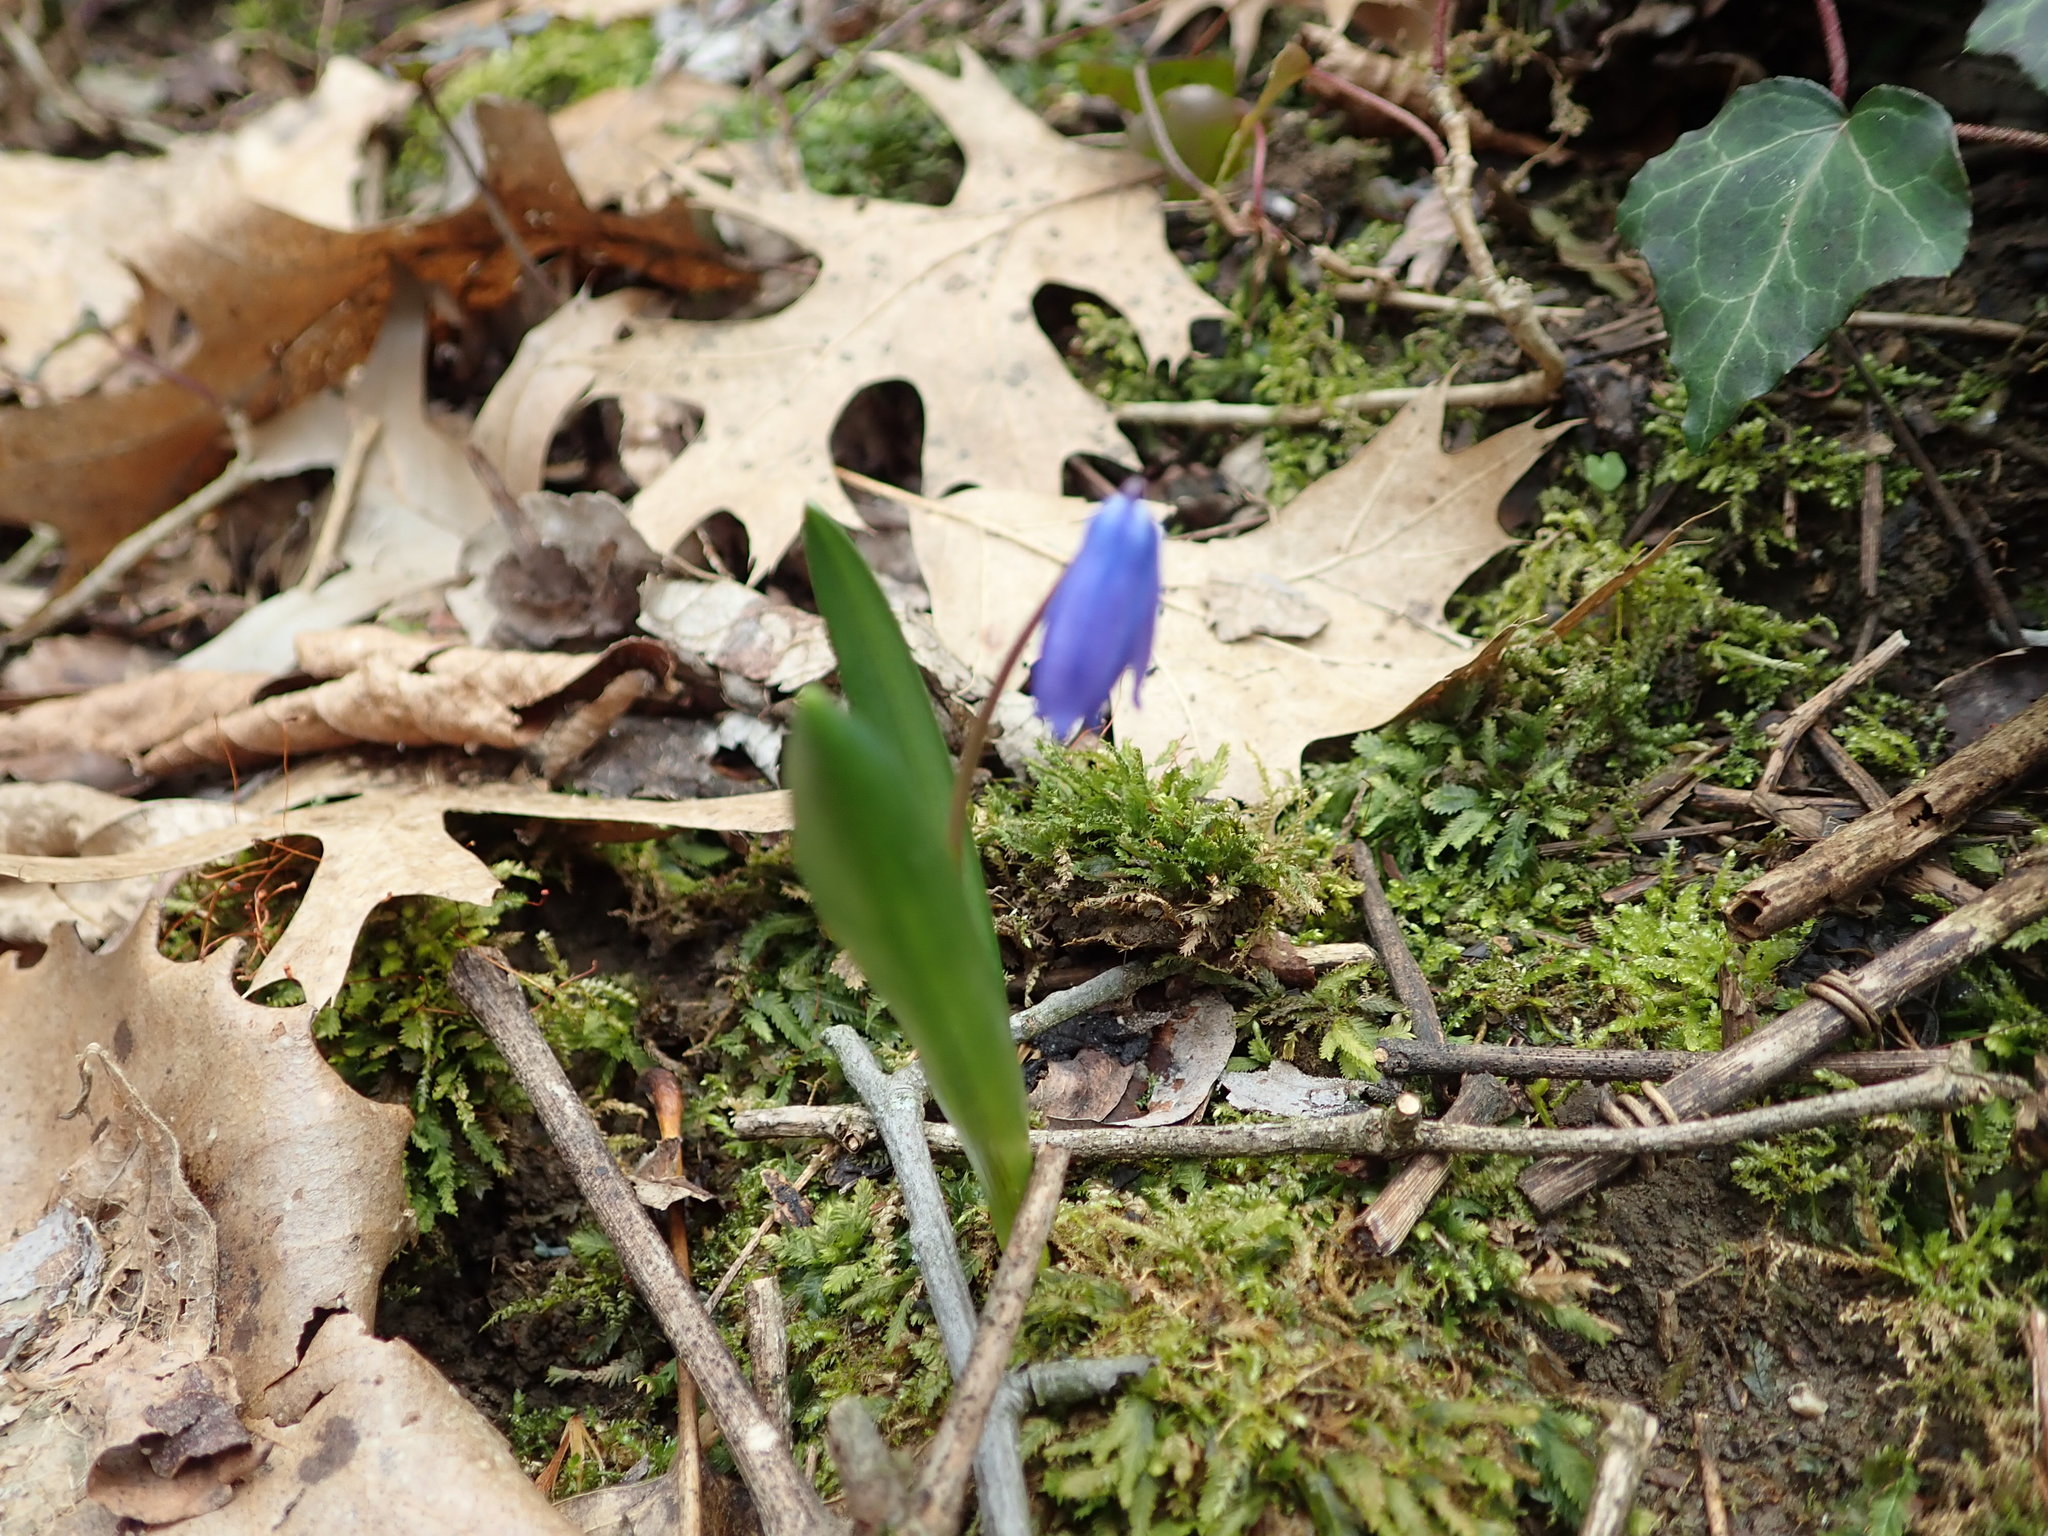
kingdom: Plantae
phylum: Tracheophyta
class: Liliopsida
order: Asparagales
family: Asparagaceae
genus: Scilla
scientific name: Scilla siberica
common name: Siberian squill
